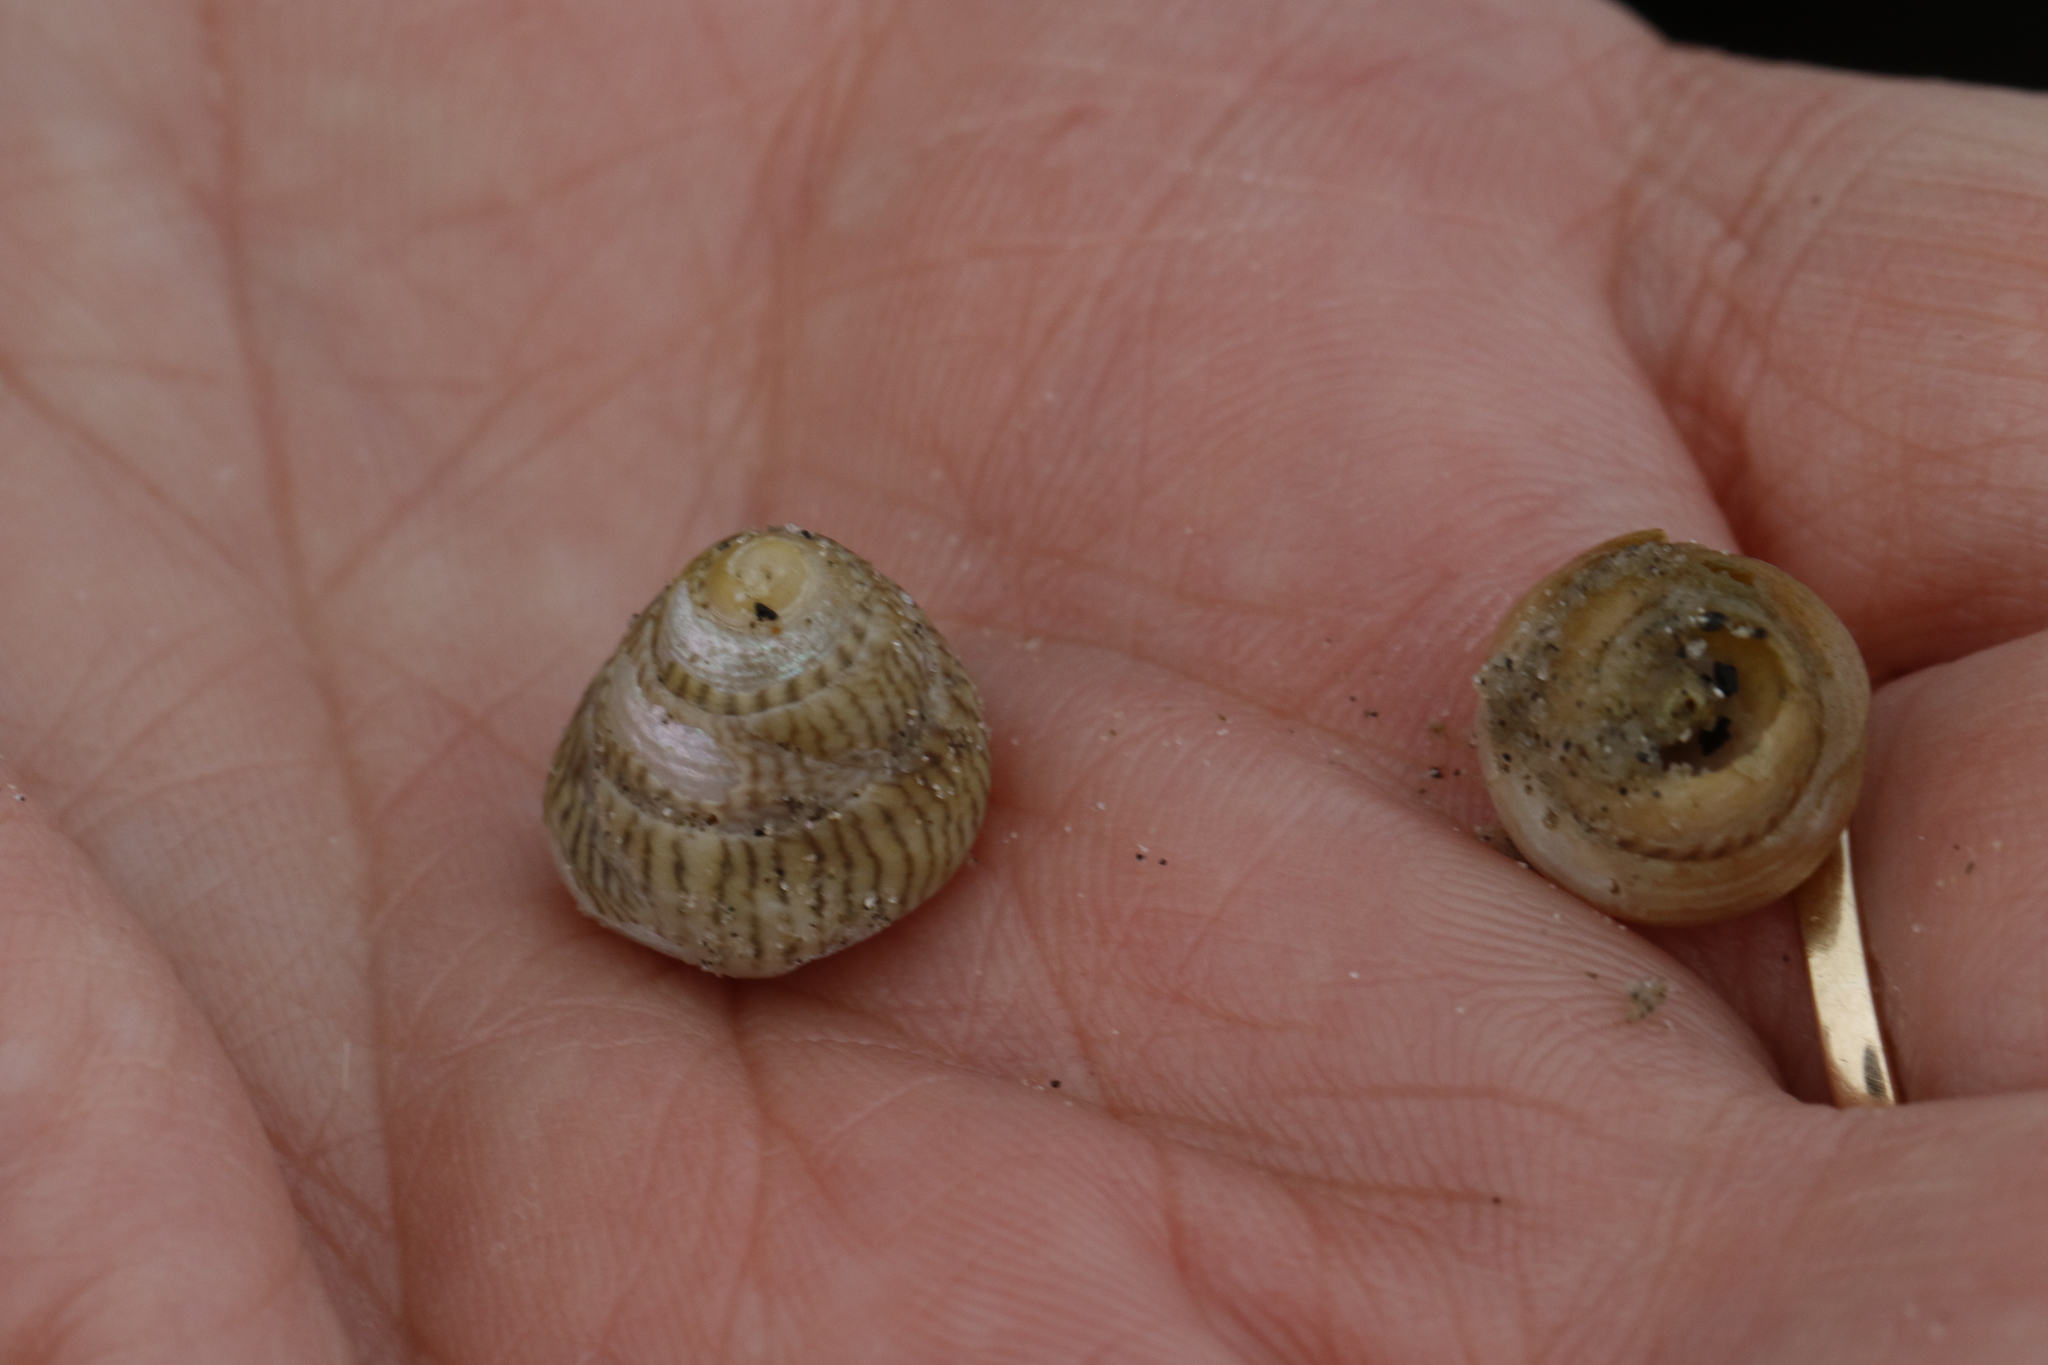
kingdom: Animalia
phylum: Mollusca
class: Gastropoda
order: Trochida
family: Trochidae
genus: Steromphala
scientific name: Steromphala cineraria
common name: Grey top shell
